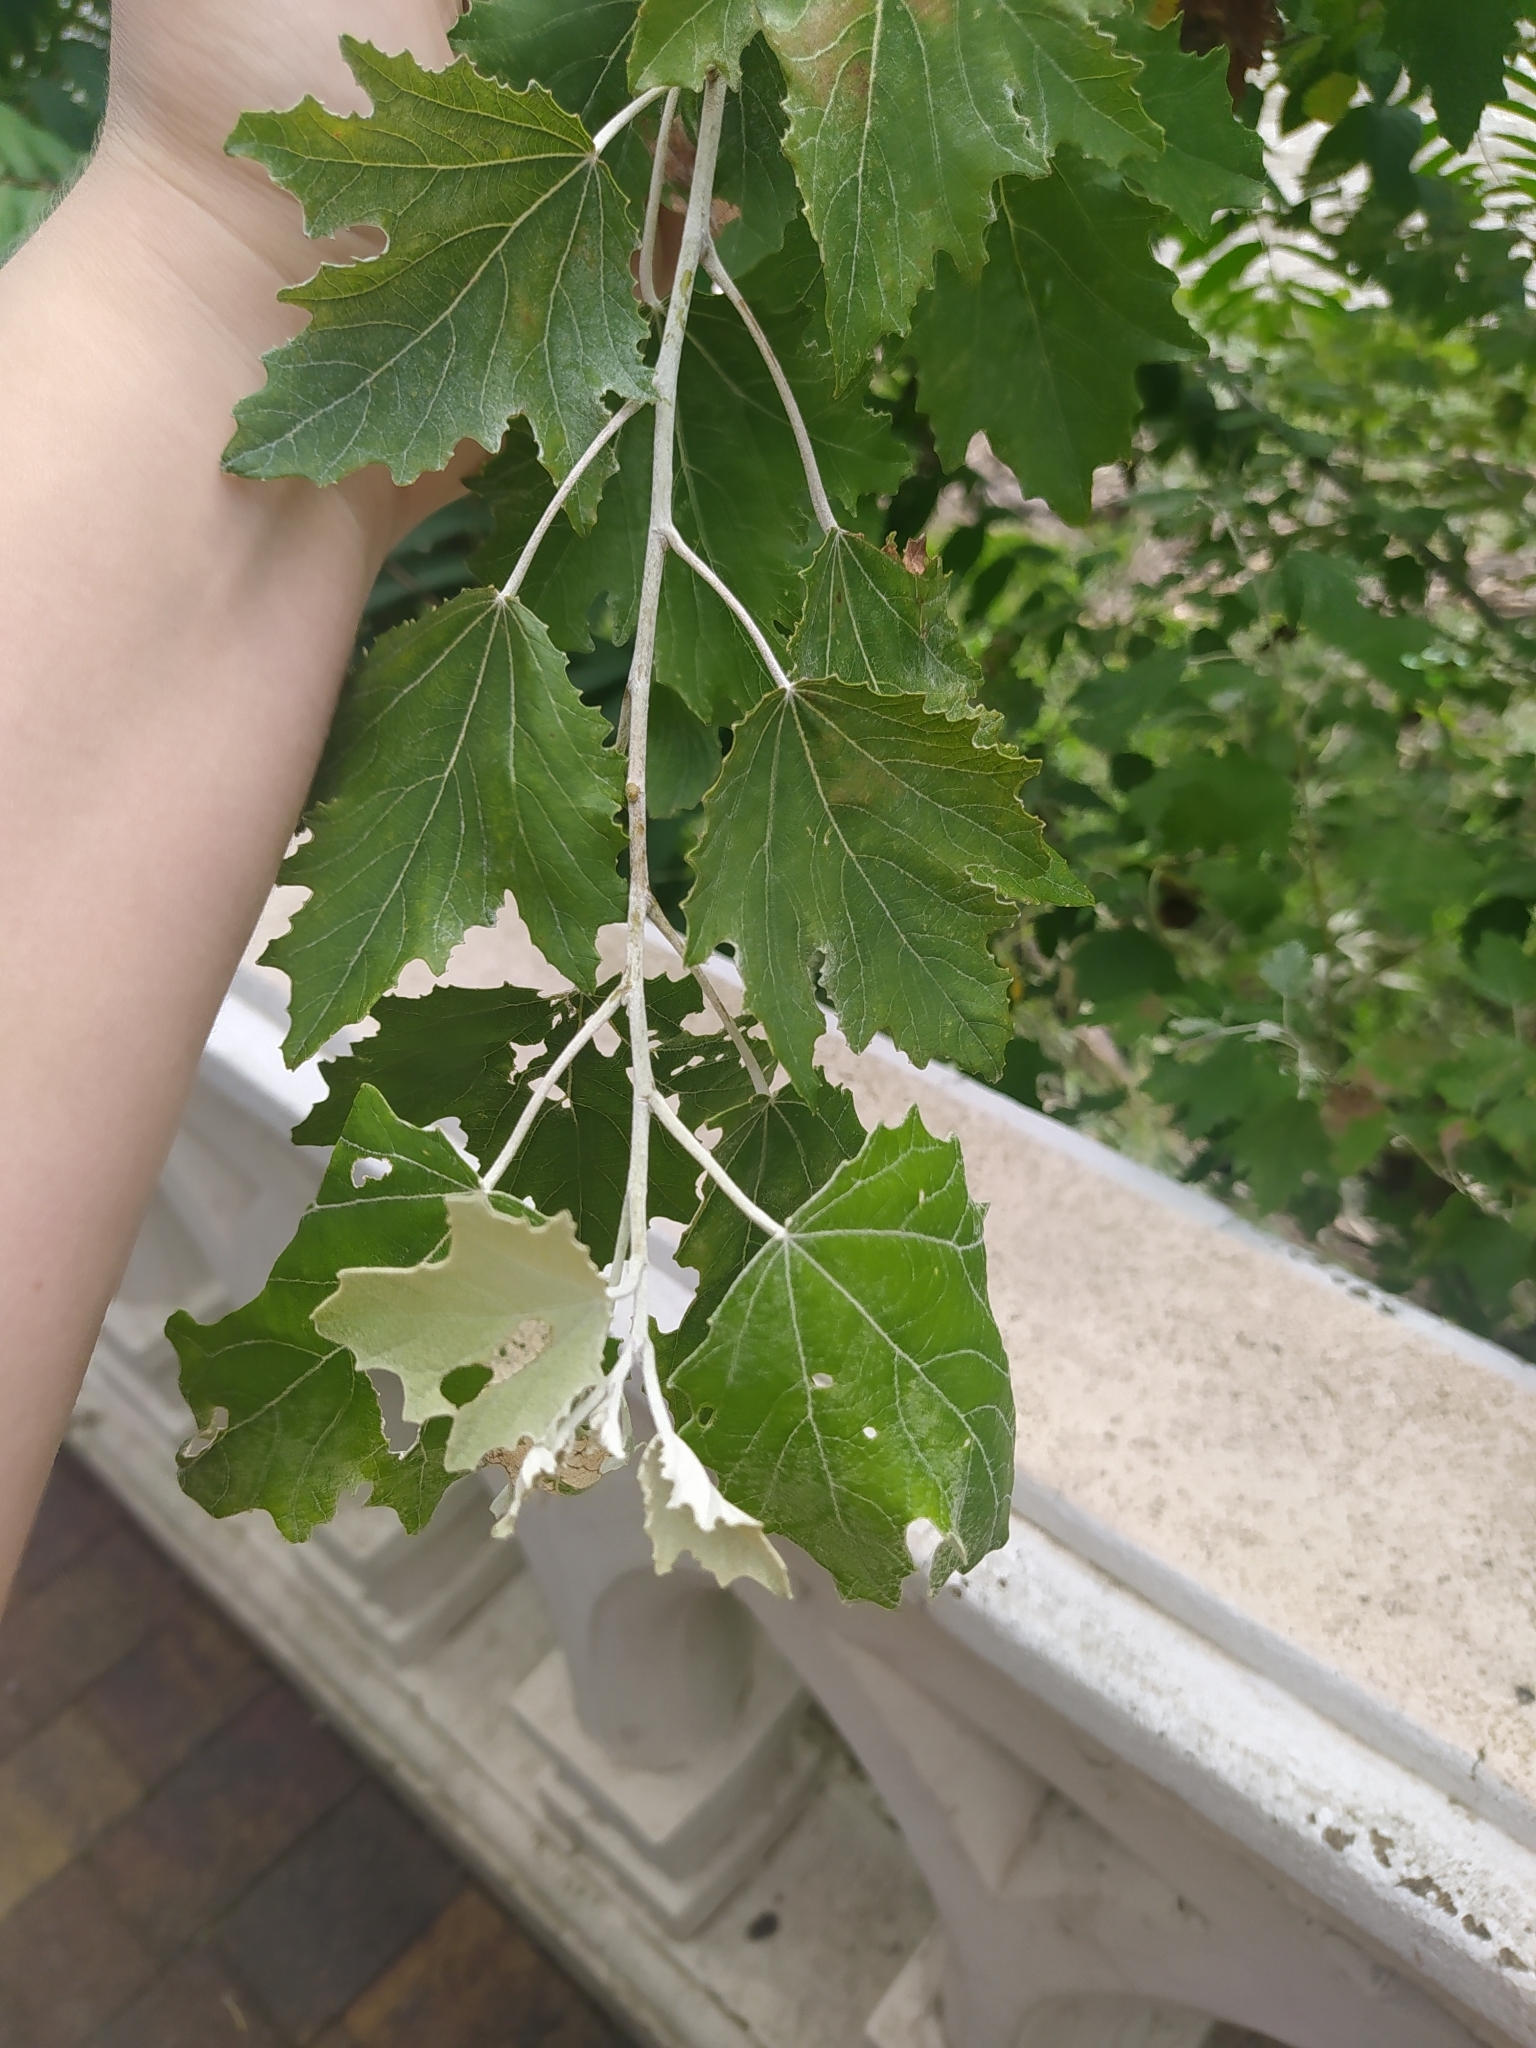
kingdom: Plantae
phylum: Tracheophyta
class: Magnoliopsida
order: Malpighiales
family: Salicaceae
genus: Populus
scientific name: Populus alba
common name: White poplar
